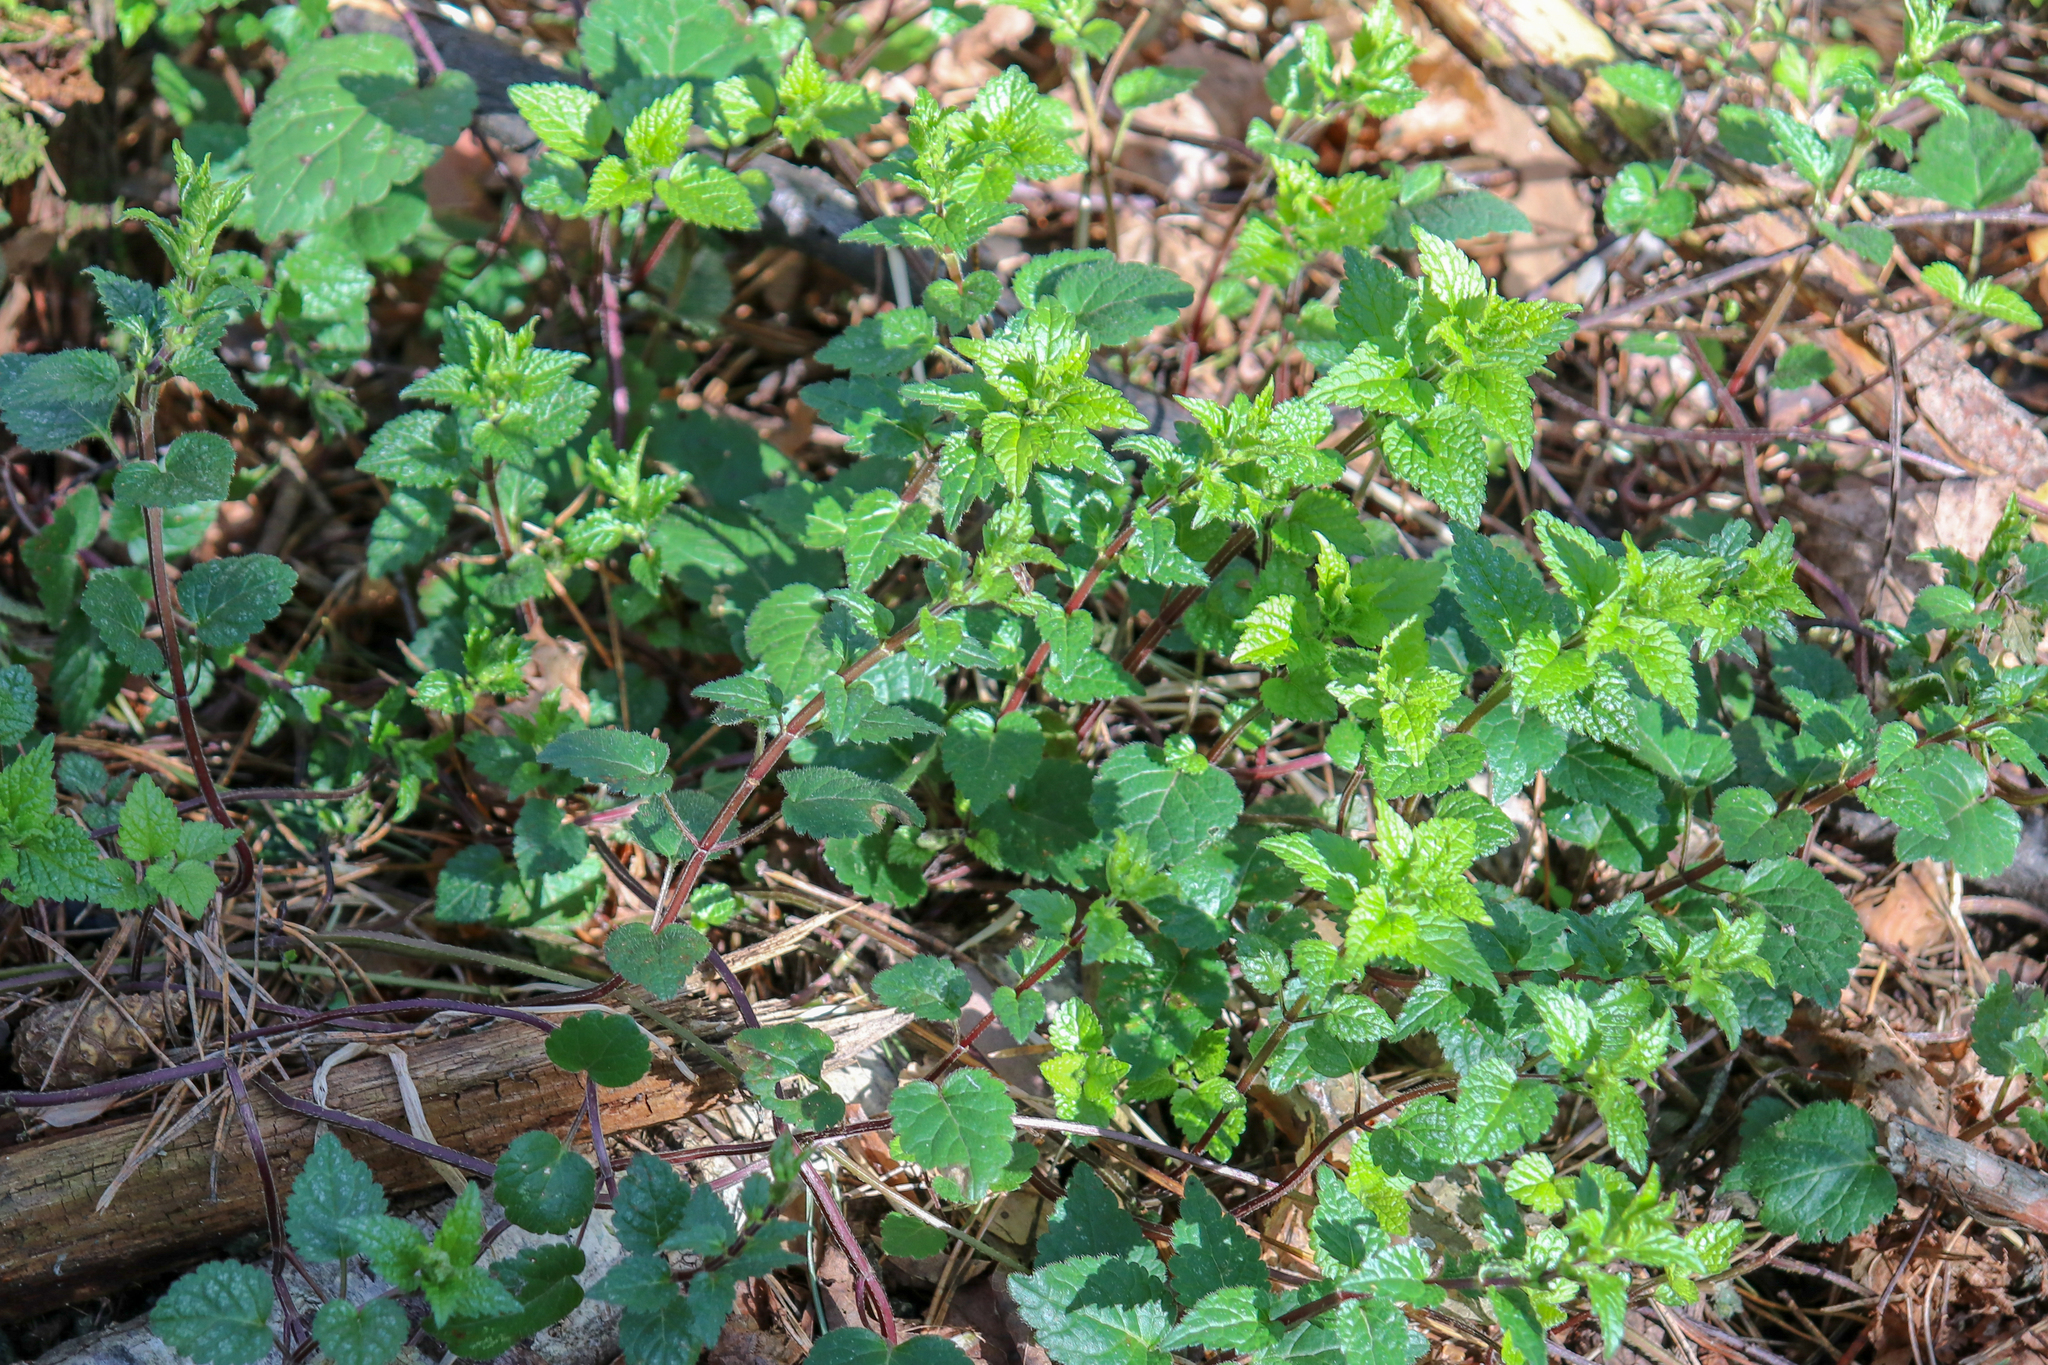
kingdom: Plantae
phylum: Tracheophyta
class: Magnoliopsida
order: Lamiales
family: Lamiaceae
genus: Lamium
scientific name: Lamium galeobdolon
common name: Yellow archangel
